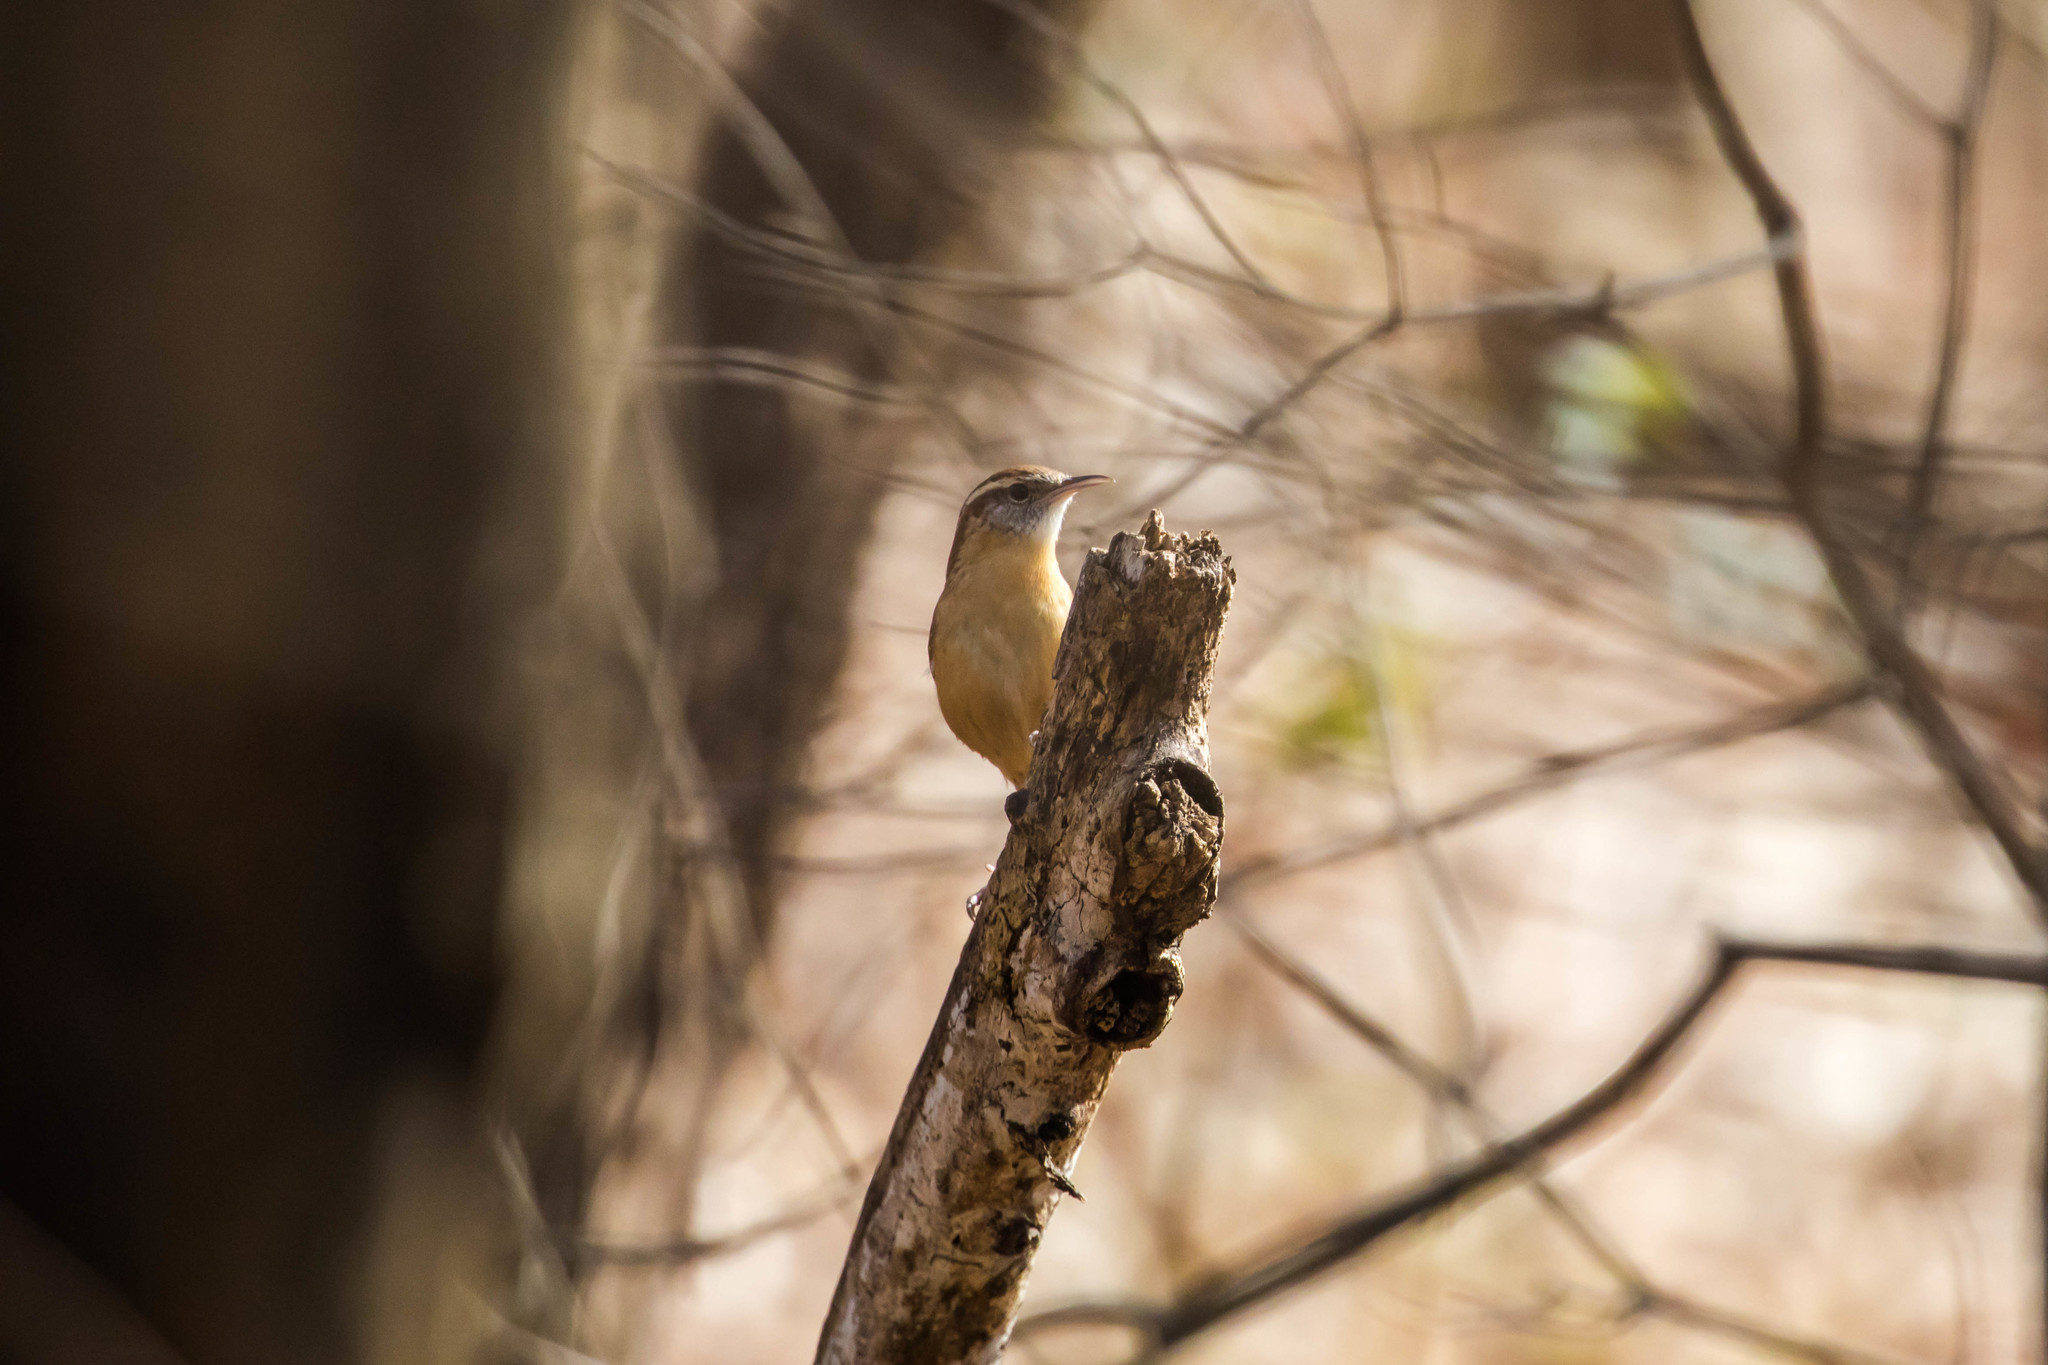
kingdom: Animalia
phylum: Chordata
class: Aves
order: Passeriformes
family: Troglodytidae
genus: Thryothorus
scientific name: Thryothorus ludovicianus
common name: Carolina wren
